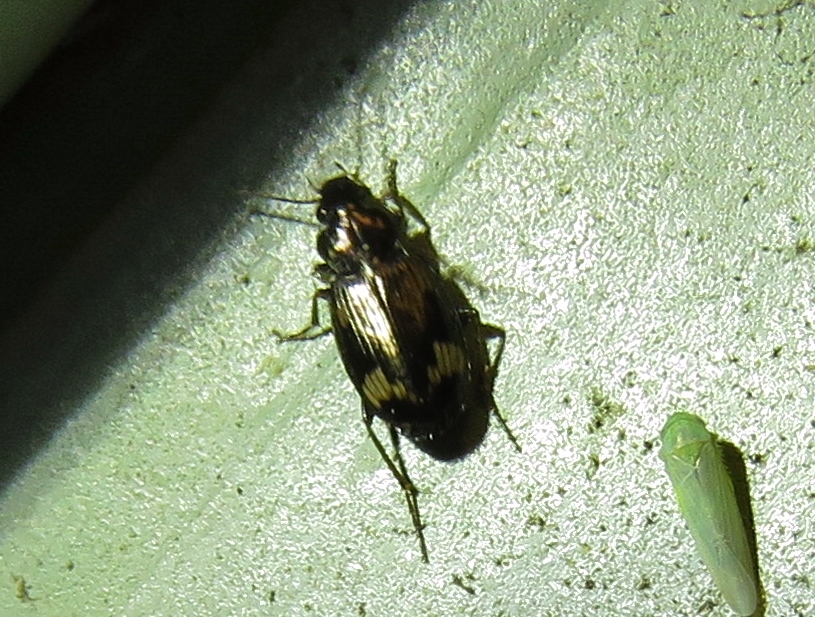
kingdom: Animalia
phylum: Arthropoda
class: Insecta
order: Coleoptera
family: Carabidae
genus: Tetragonoderus
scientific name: Tetragonoderus intersectus
